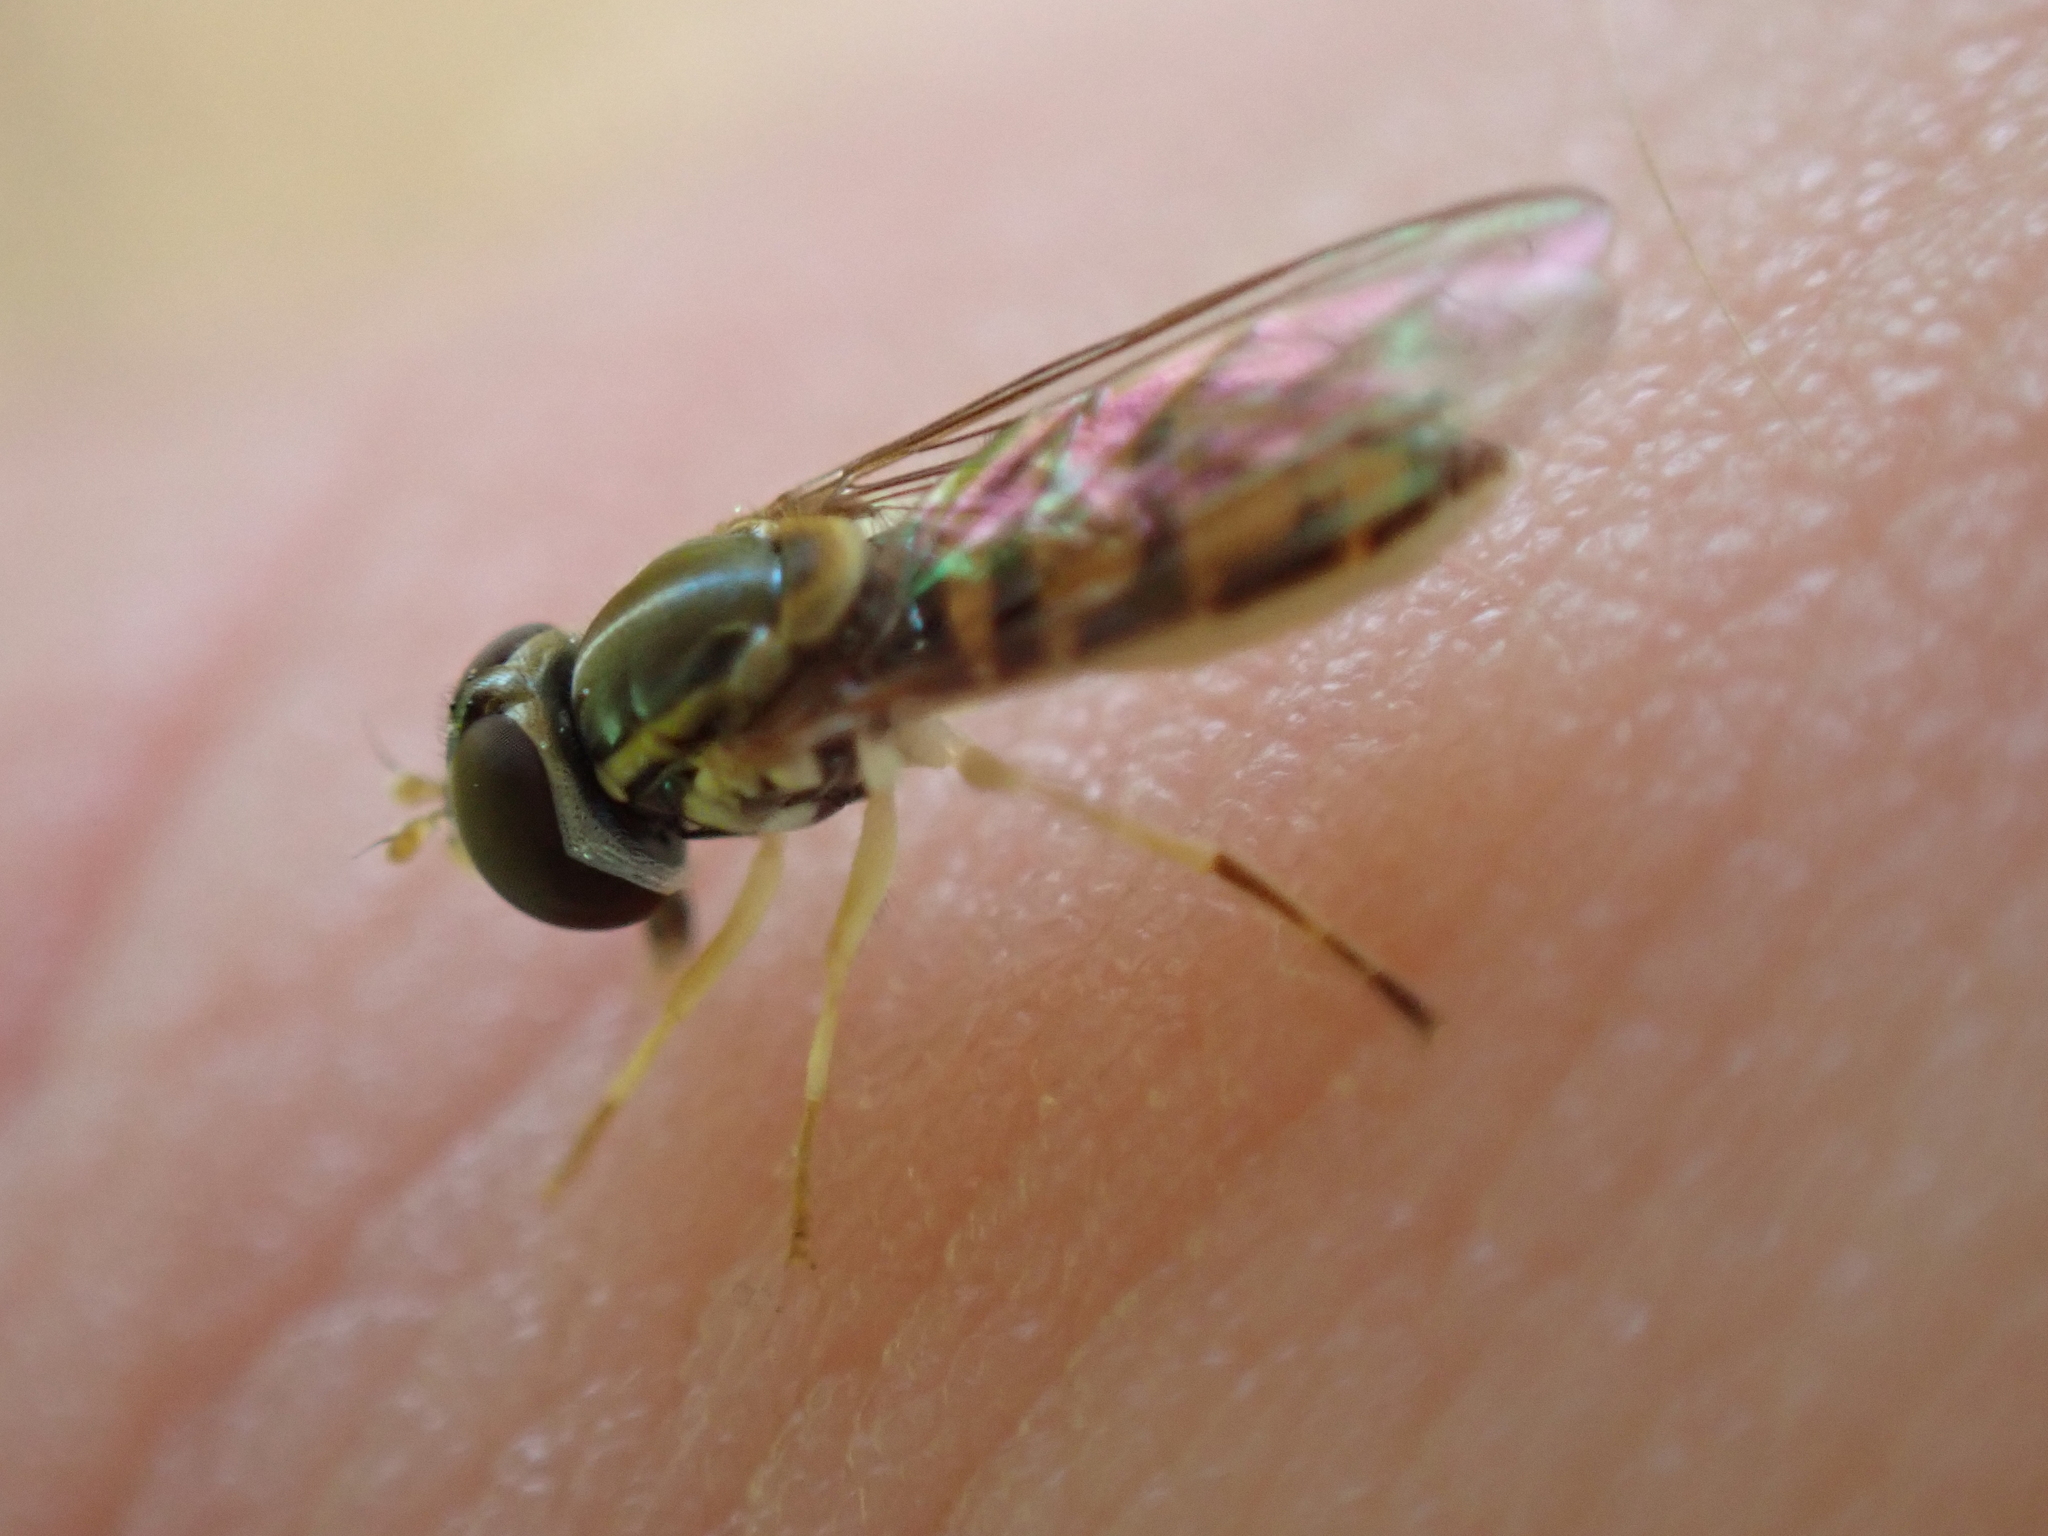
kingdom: Animalia
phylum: Arthropoda
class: Insecta
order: Diptera
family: Syrphidae
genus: Toxomerus
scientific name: Toxomerus marginatus
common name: Syrphid fly
